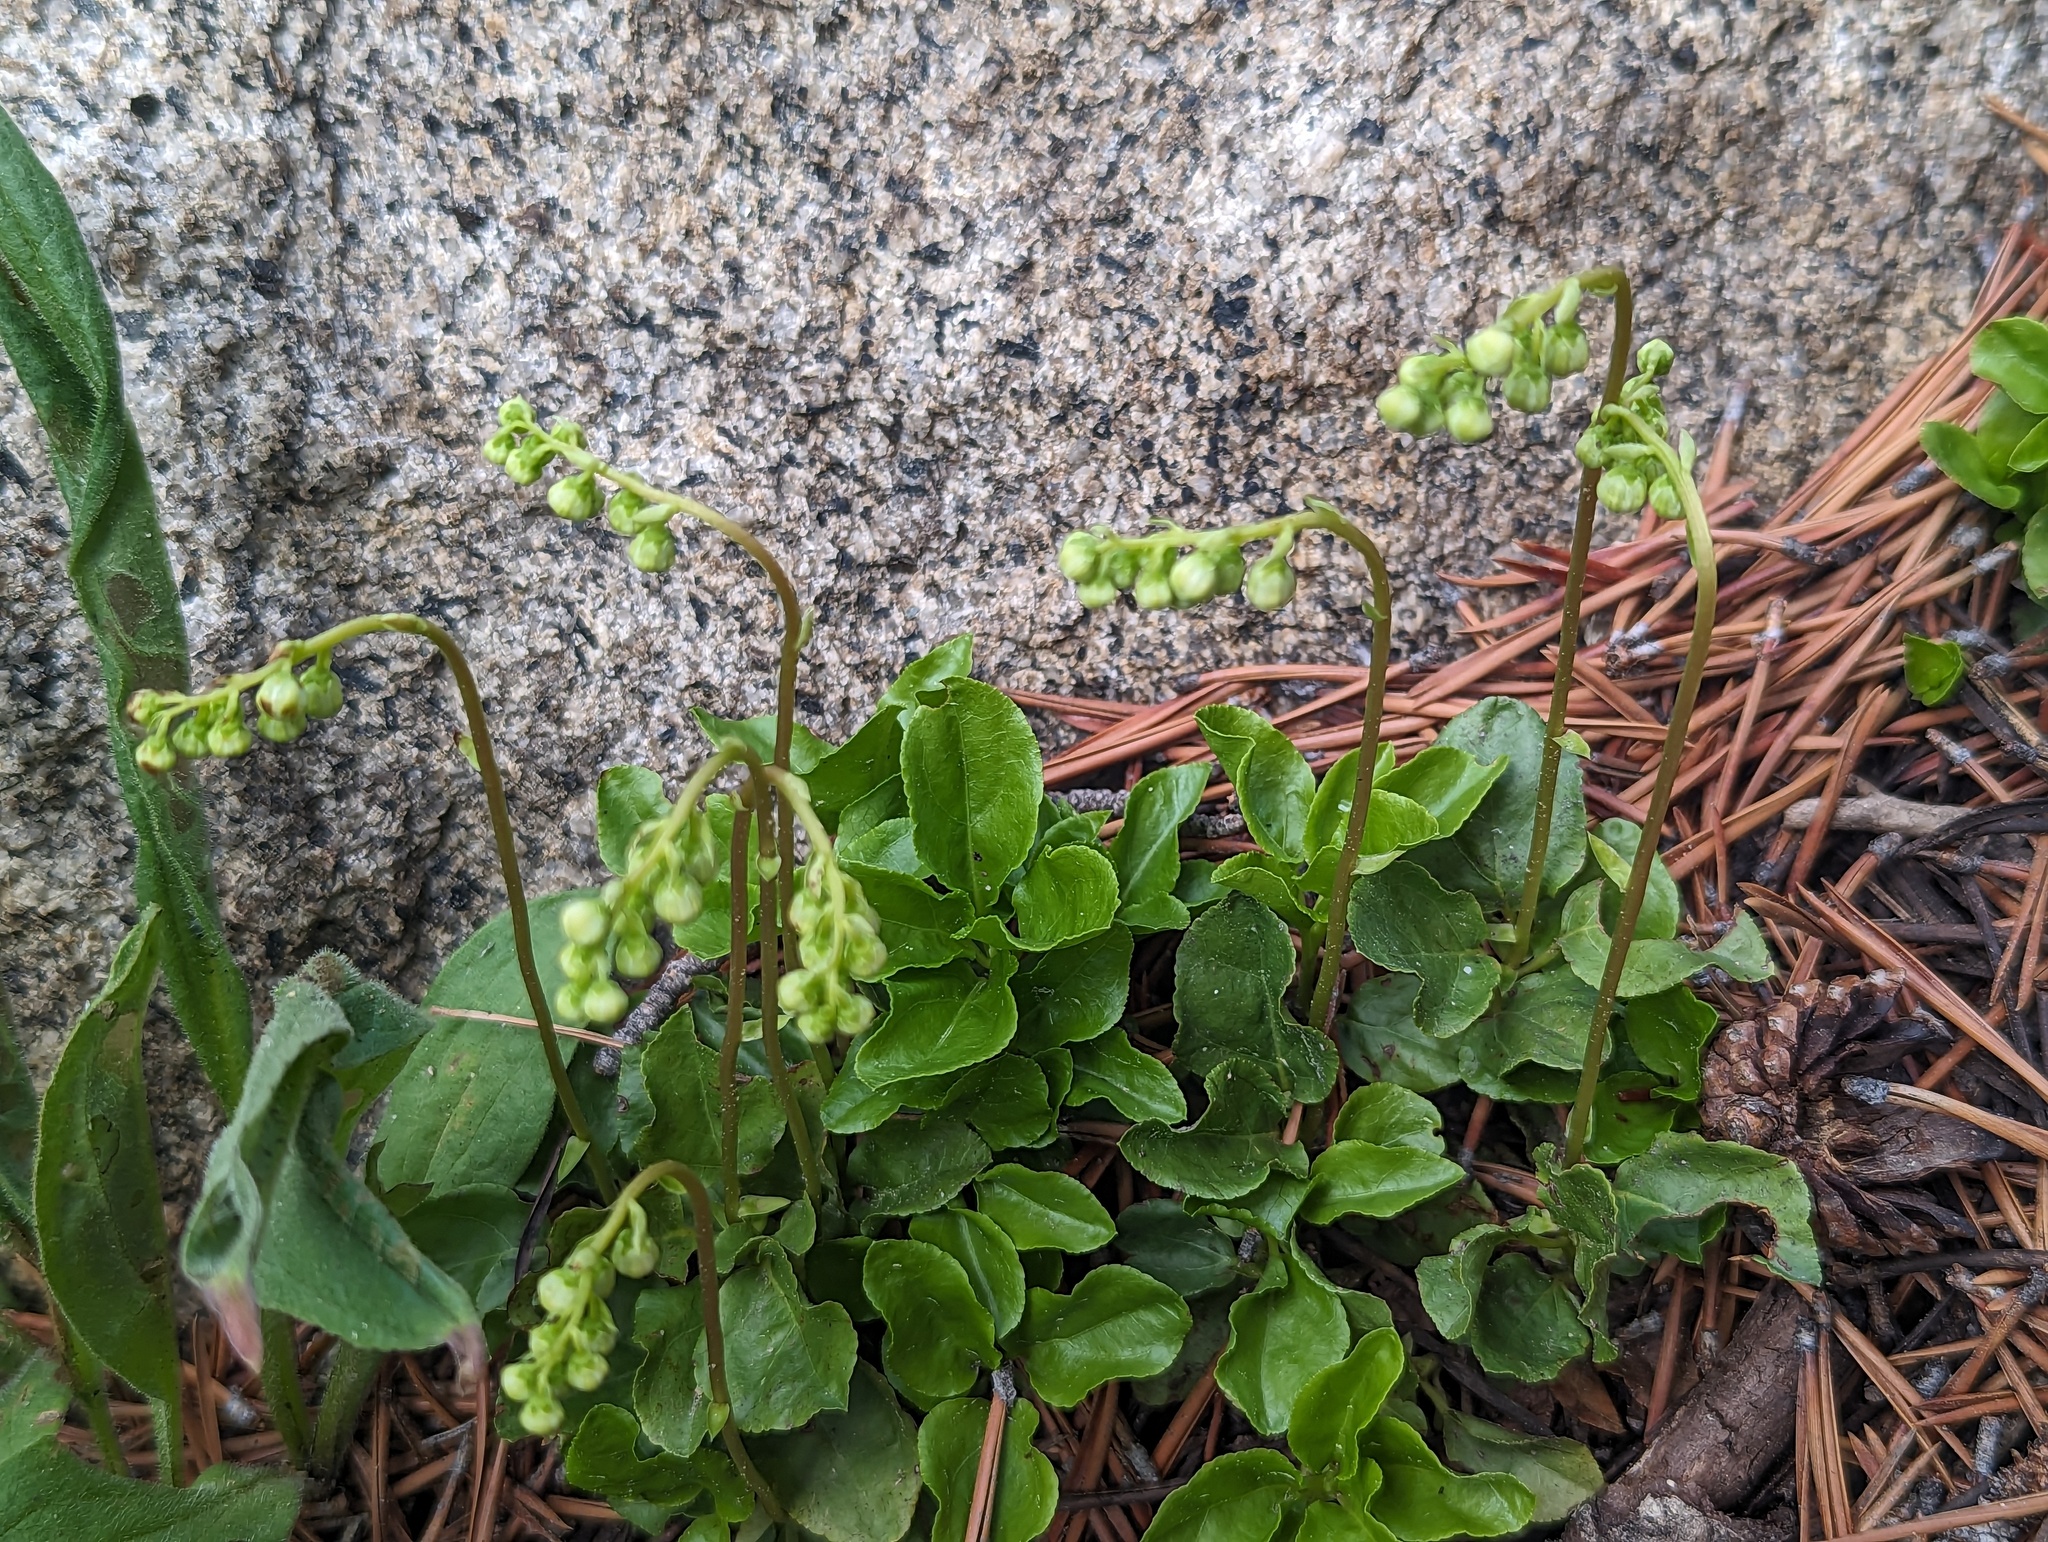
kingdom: Plantae
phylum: Tracheophyta
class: Magnoliopsida
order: Ericales
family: Ericaceae
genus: Orthilia
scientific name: Orthilia secunda
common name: One-sided orthilia
